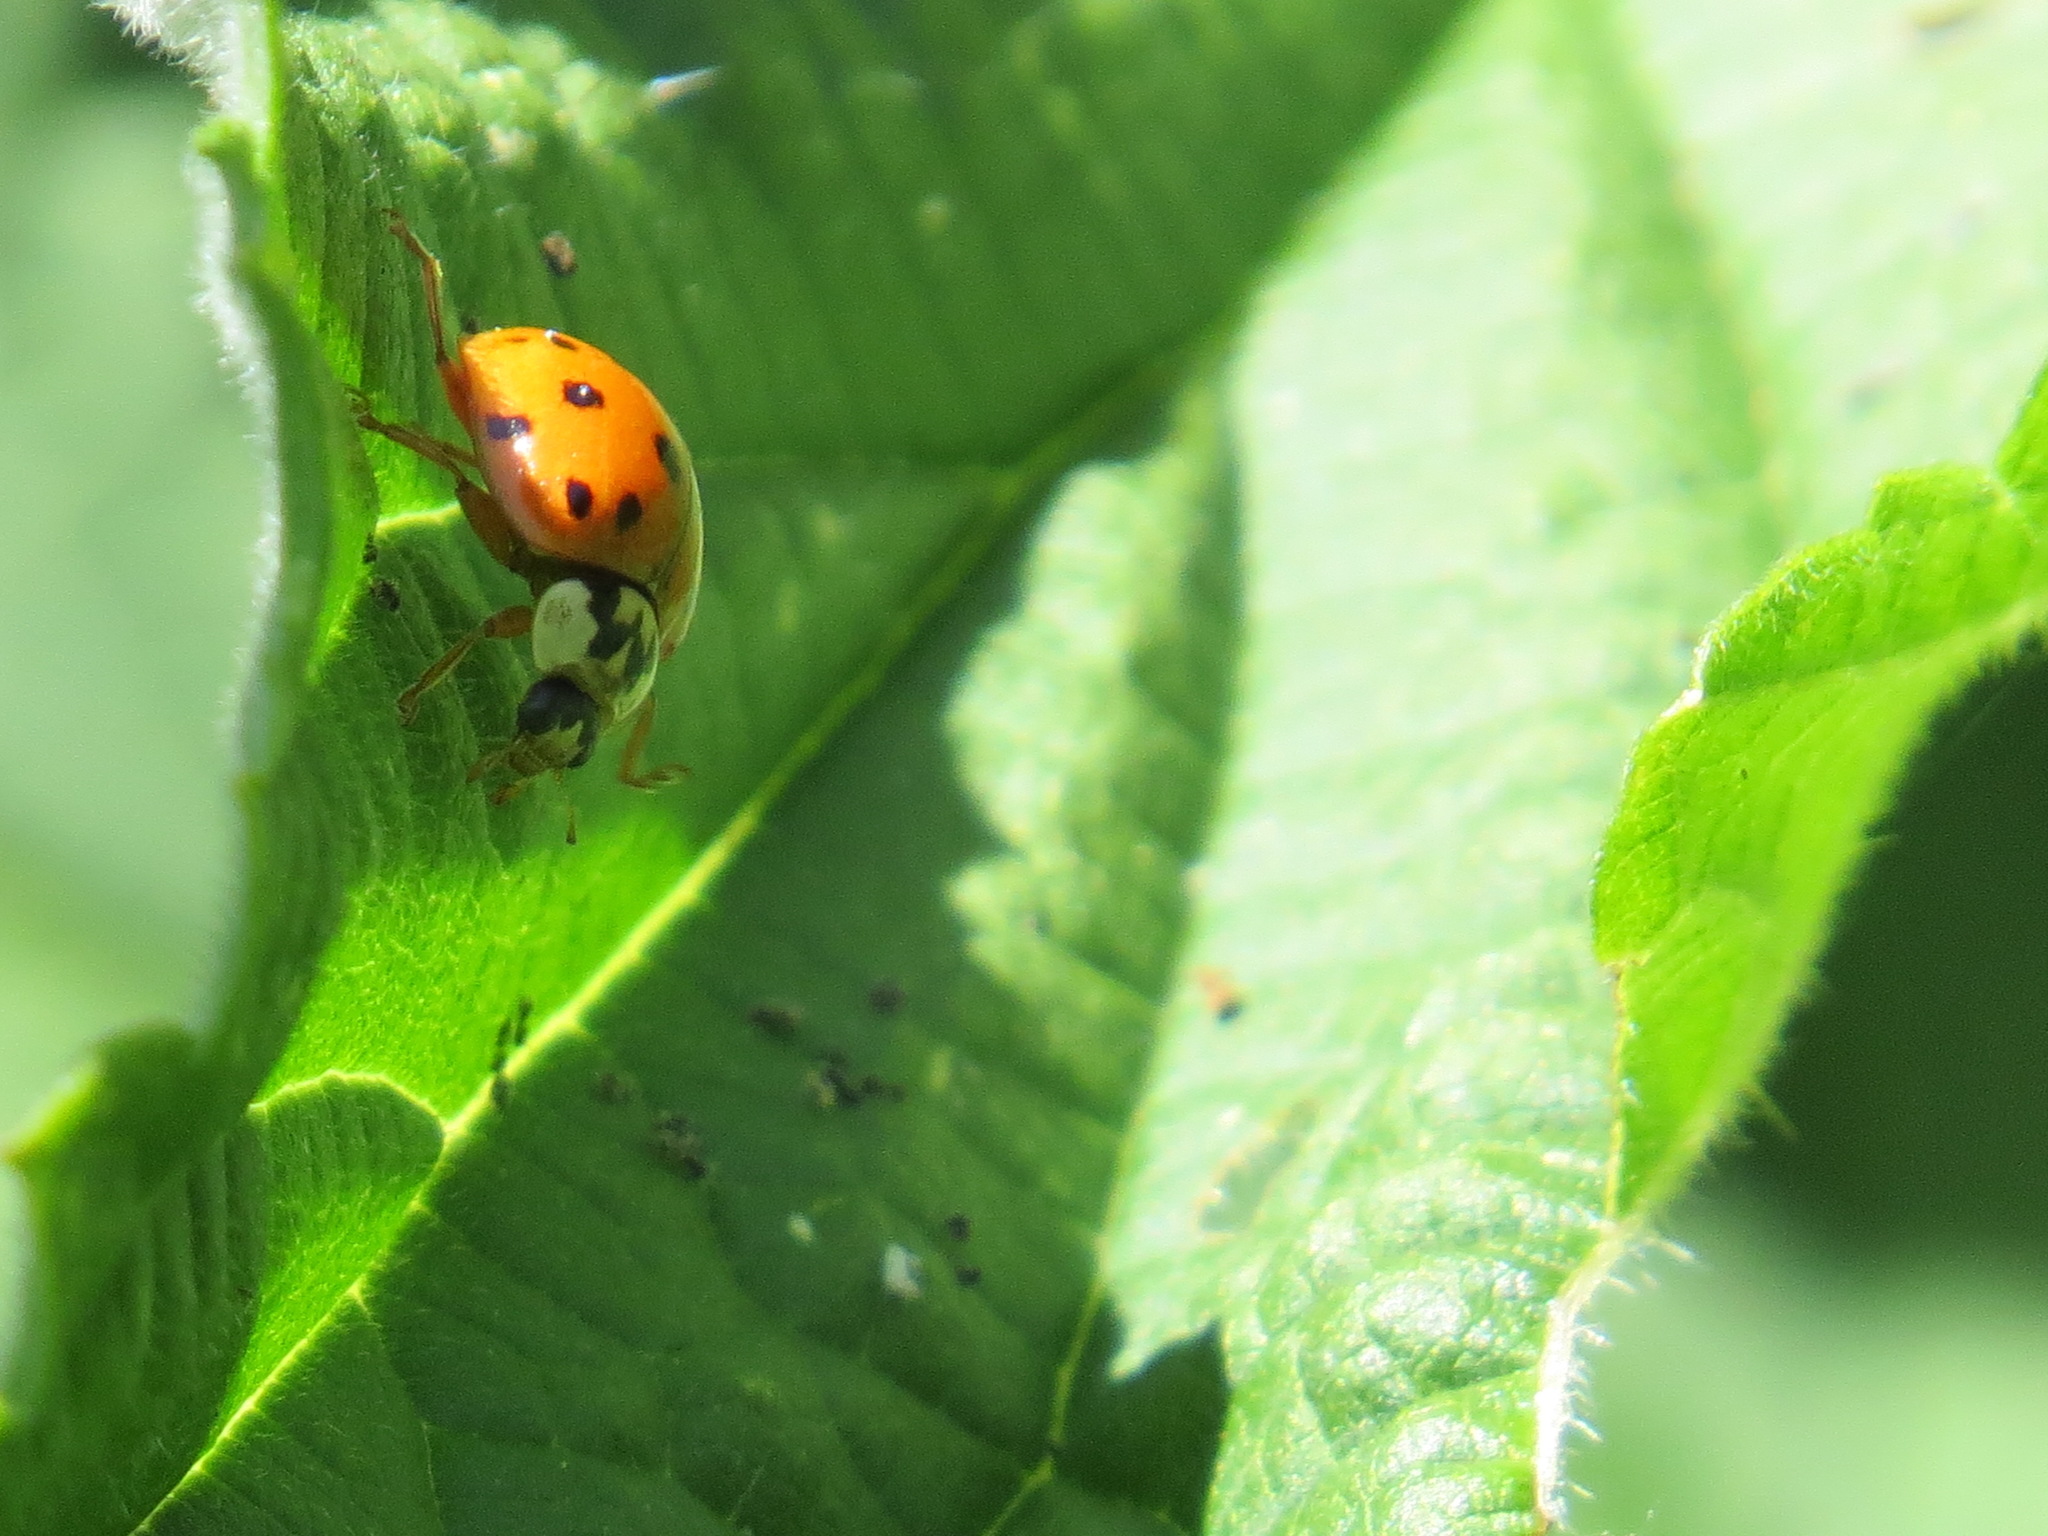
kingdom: Animalia
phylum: Arthropoda
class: Insecta
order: Coleoptera
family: Coccinellidae
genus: Harmonia
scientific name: Harmonia axyridis
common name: Harlequin ladybird
